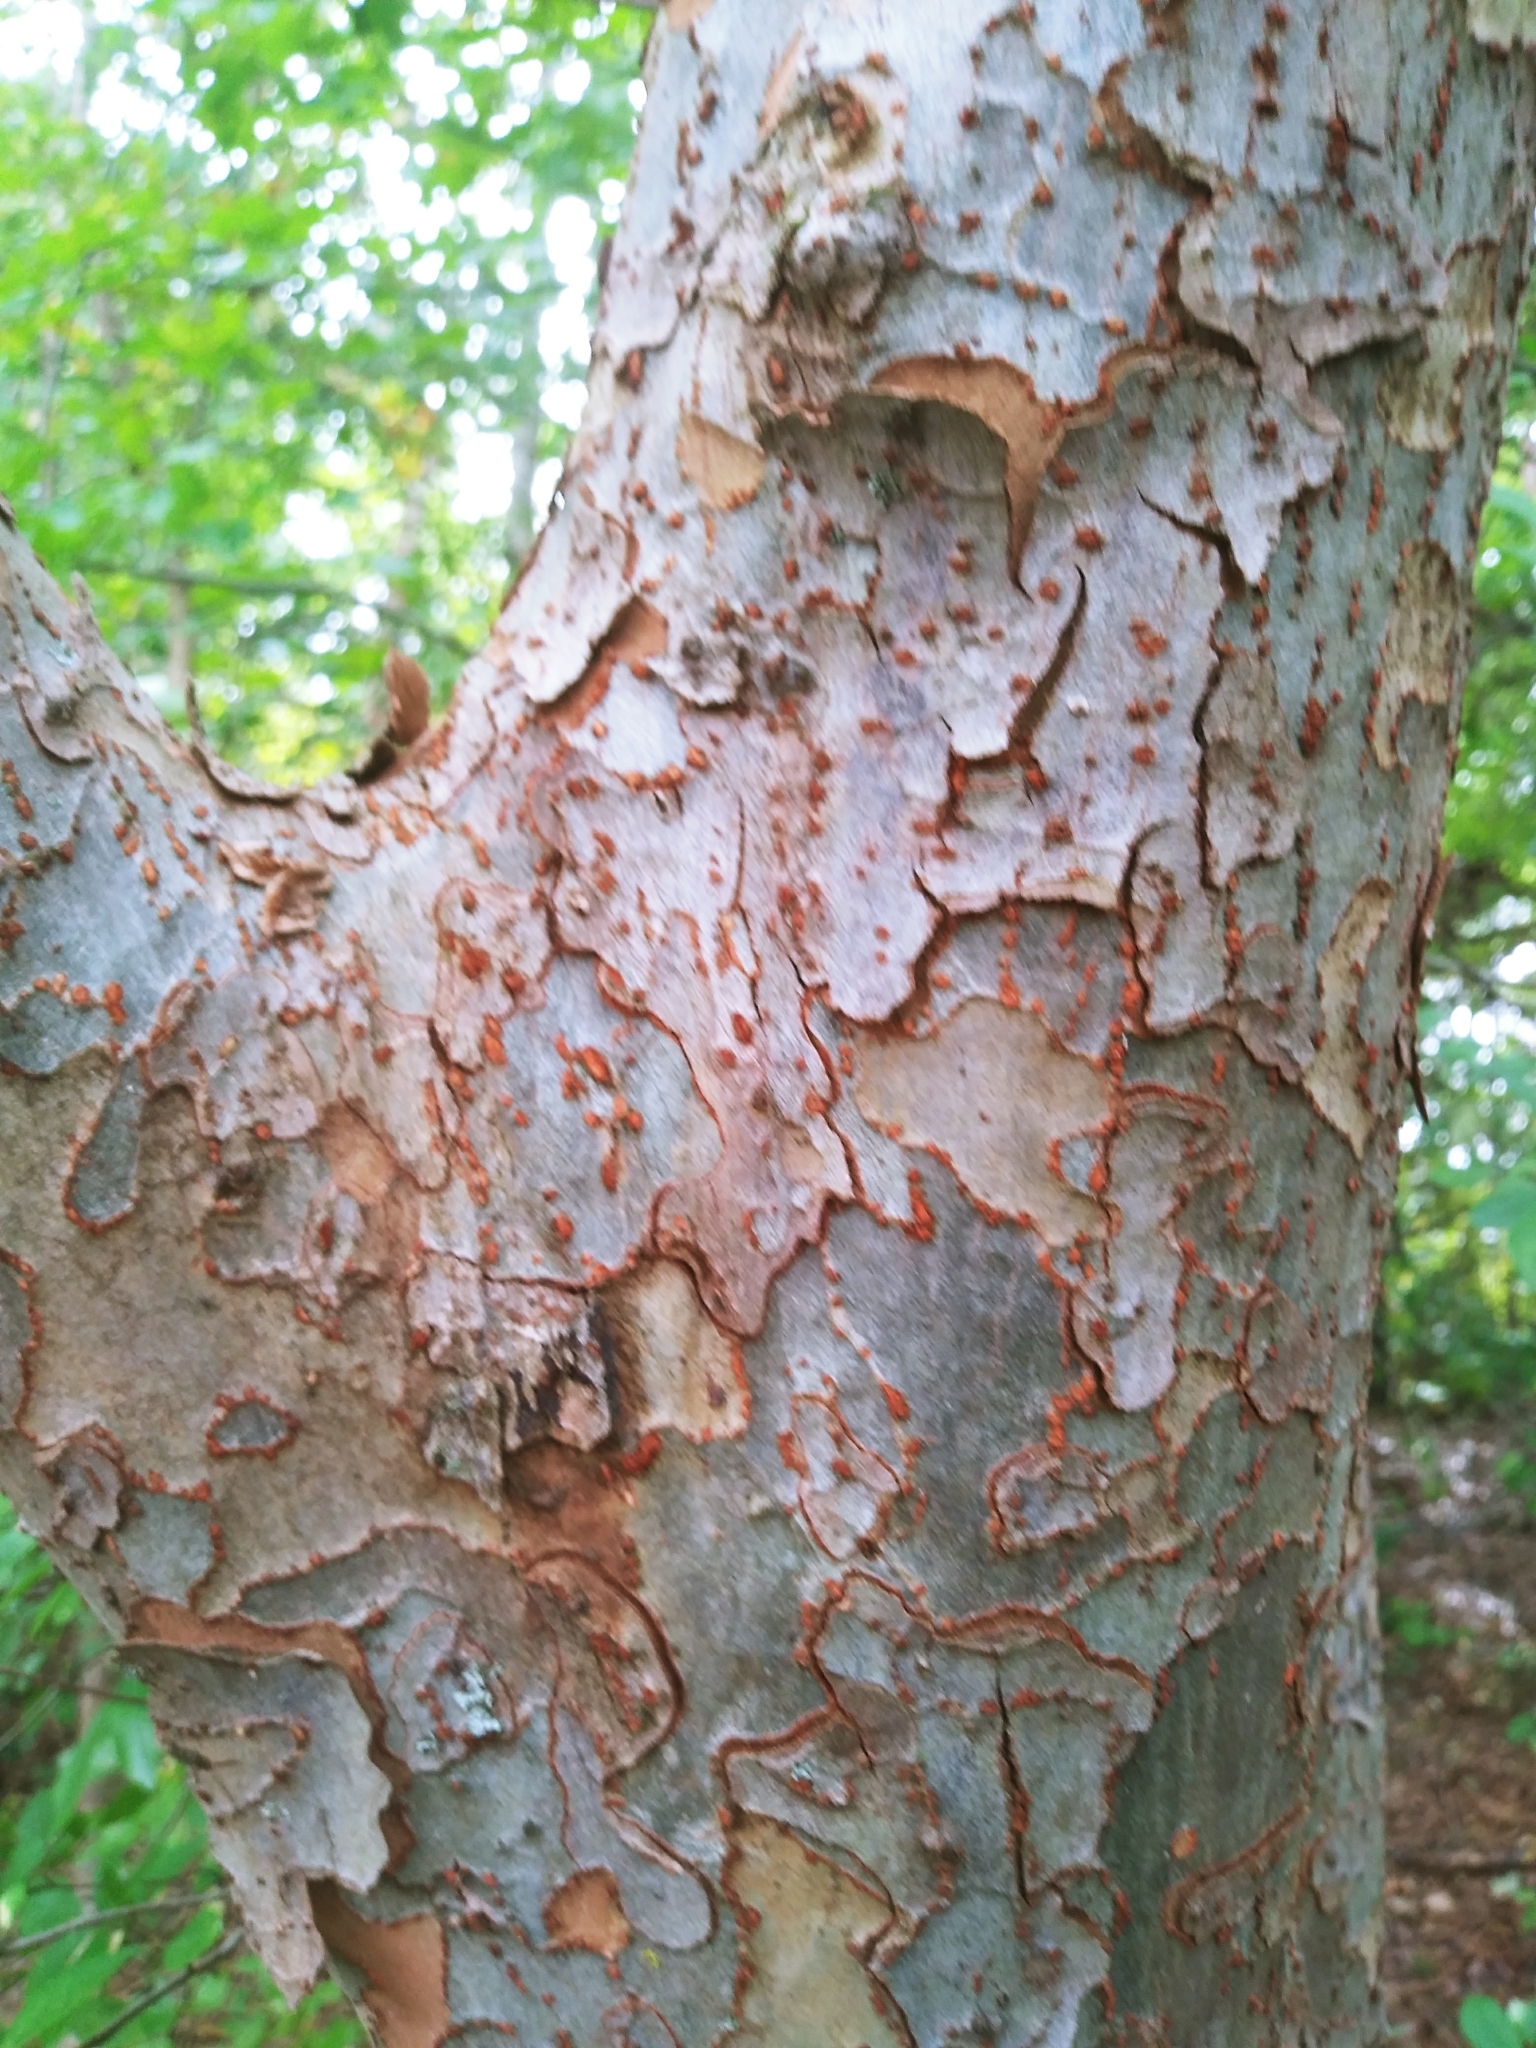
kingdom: Plantae
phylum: Tracheophyta
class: Magnoliopsida
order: Rosales
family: Ulmaceae
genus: Ulmus
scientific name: Ulmus parvifolia
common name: Chinese elm
